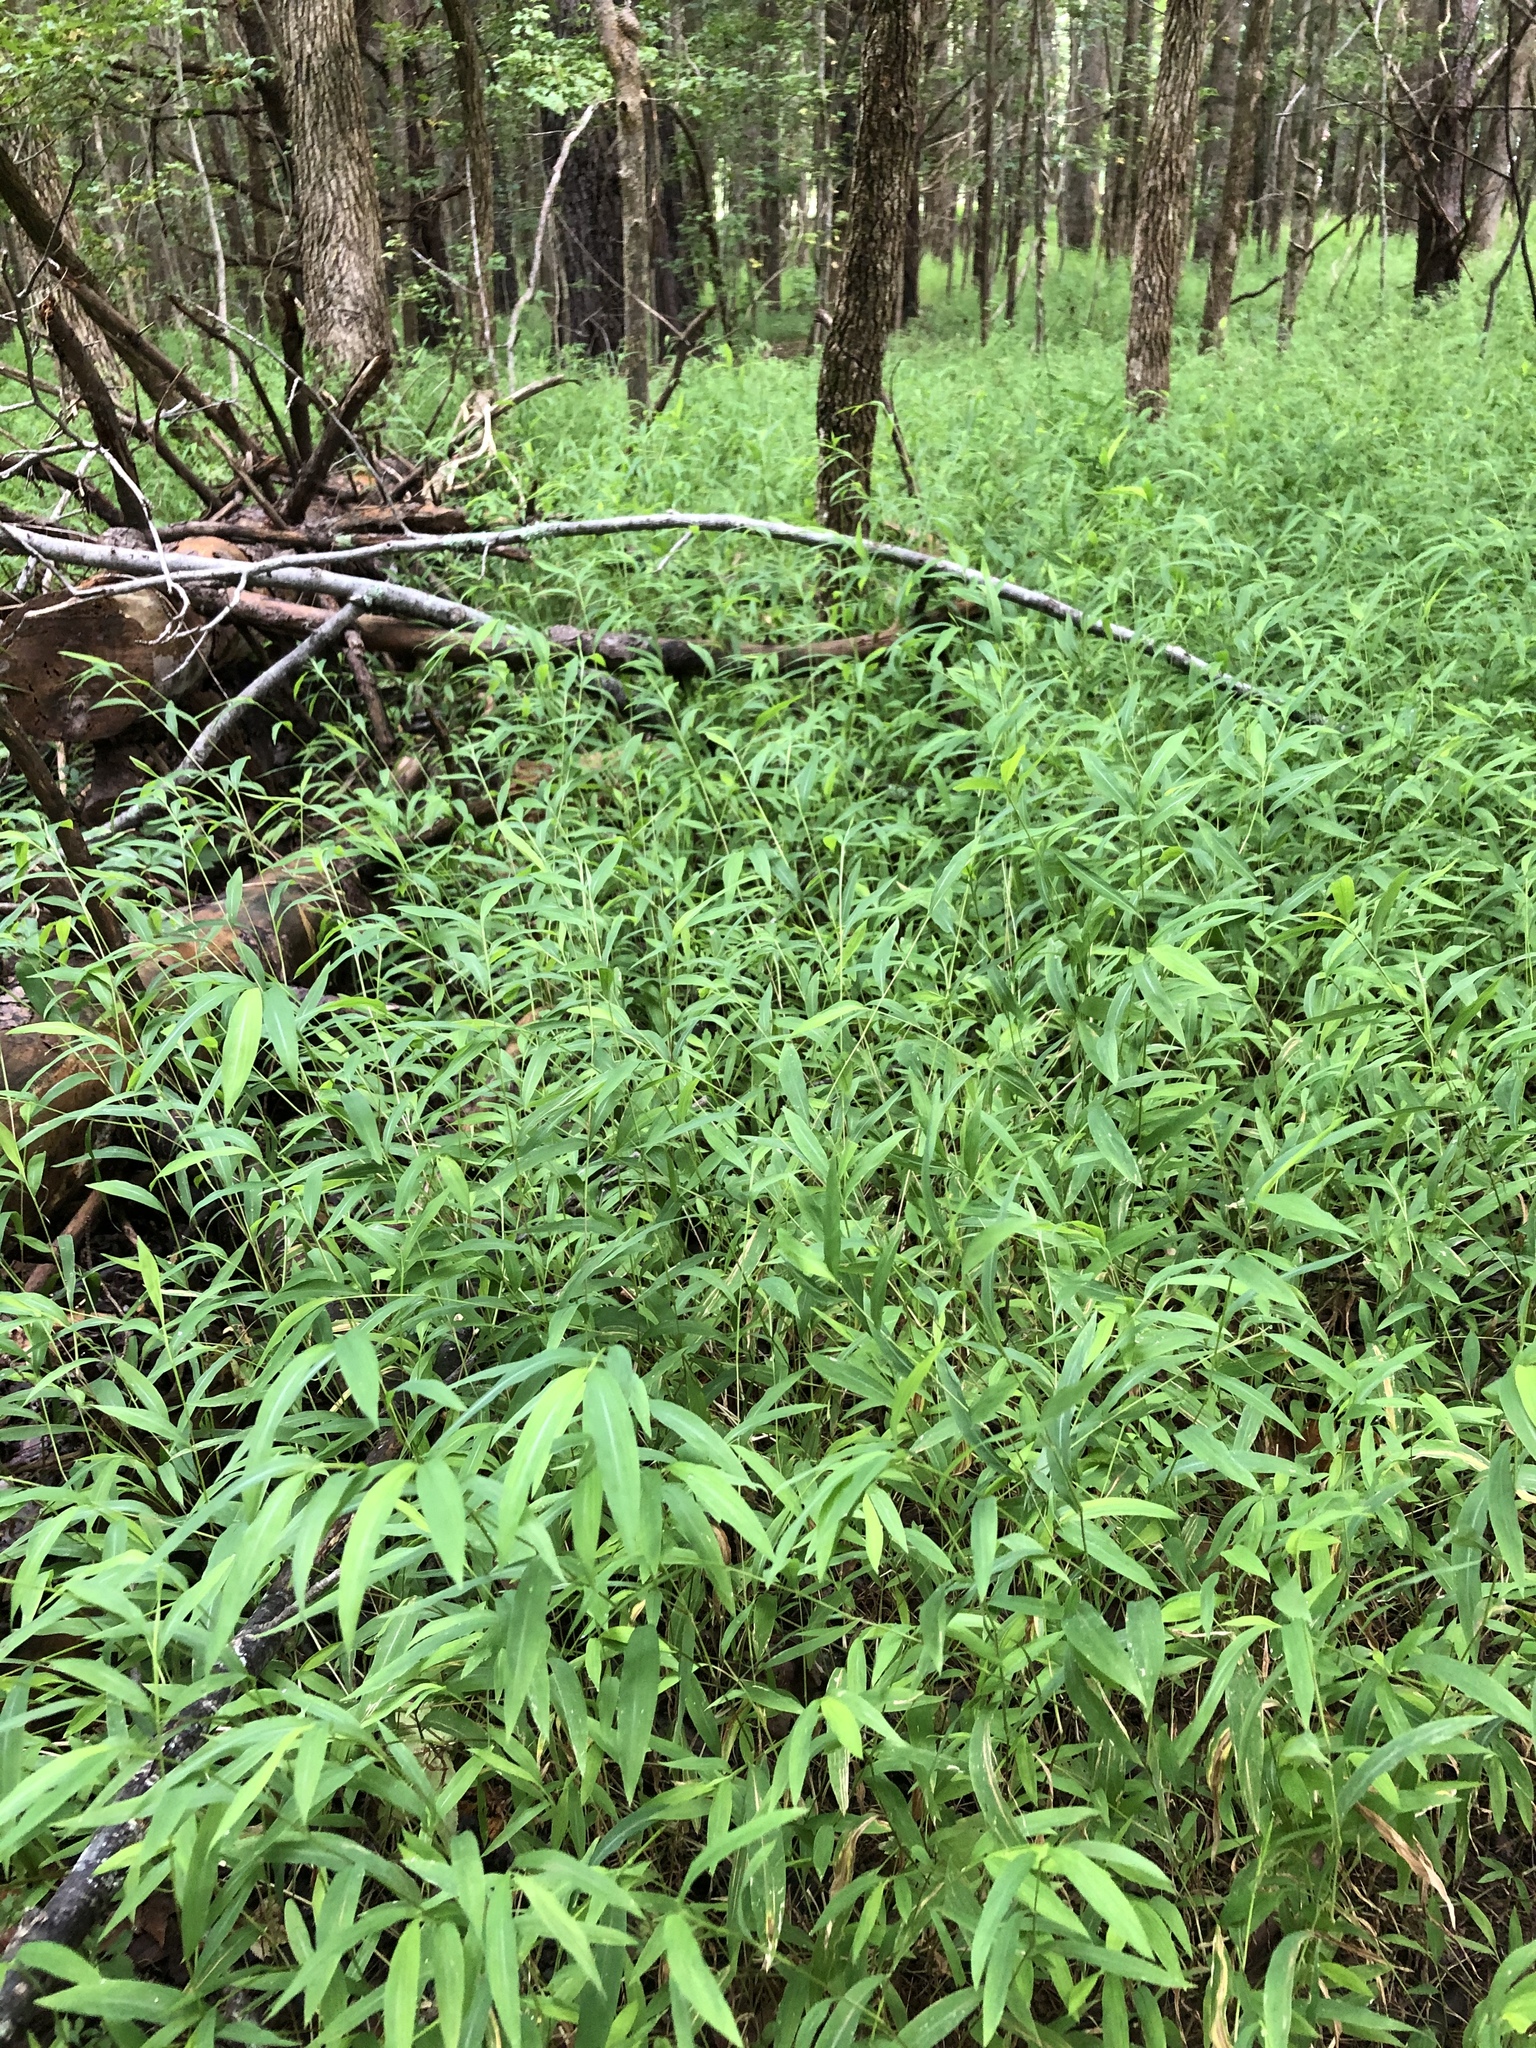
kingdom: Plantae
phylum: Tracheophyta
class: Liliopsida
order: Poales
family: Poaceae
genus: Microstegium
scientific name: Microstegium vimineum
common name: Japanese stiltgrass
